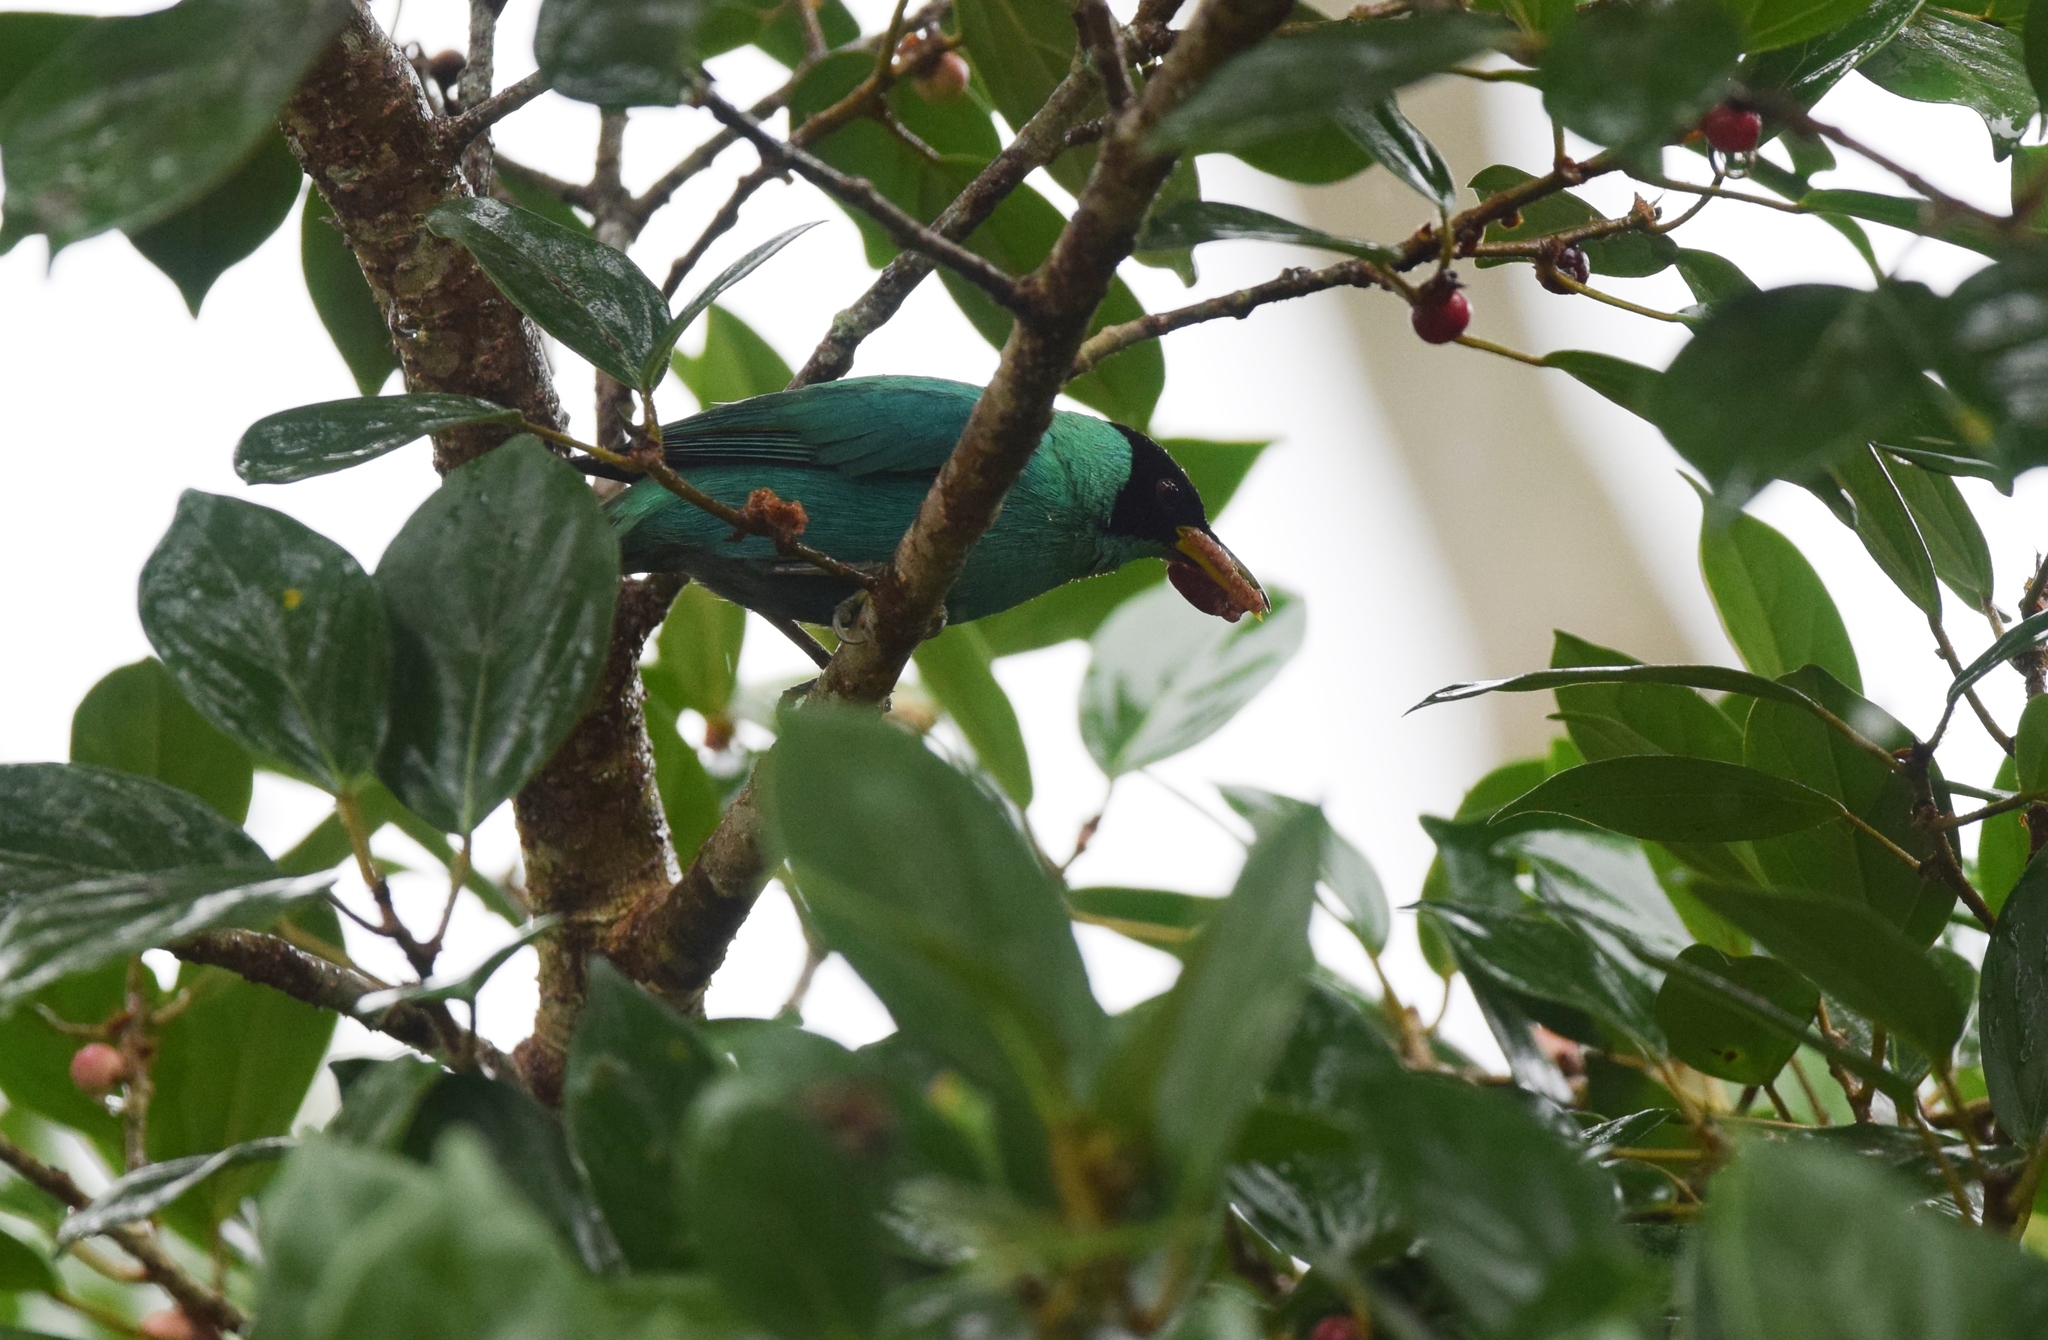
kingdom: Animalia
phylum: Chordata
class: Aves
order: Passeriformes
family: Thraupidae
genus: Chlorophanes
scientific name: Chlorophanes spiza
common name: Green honeycreeper
